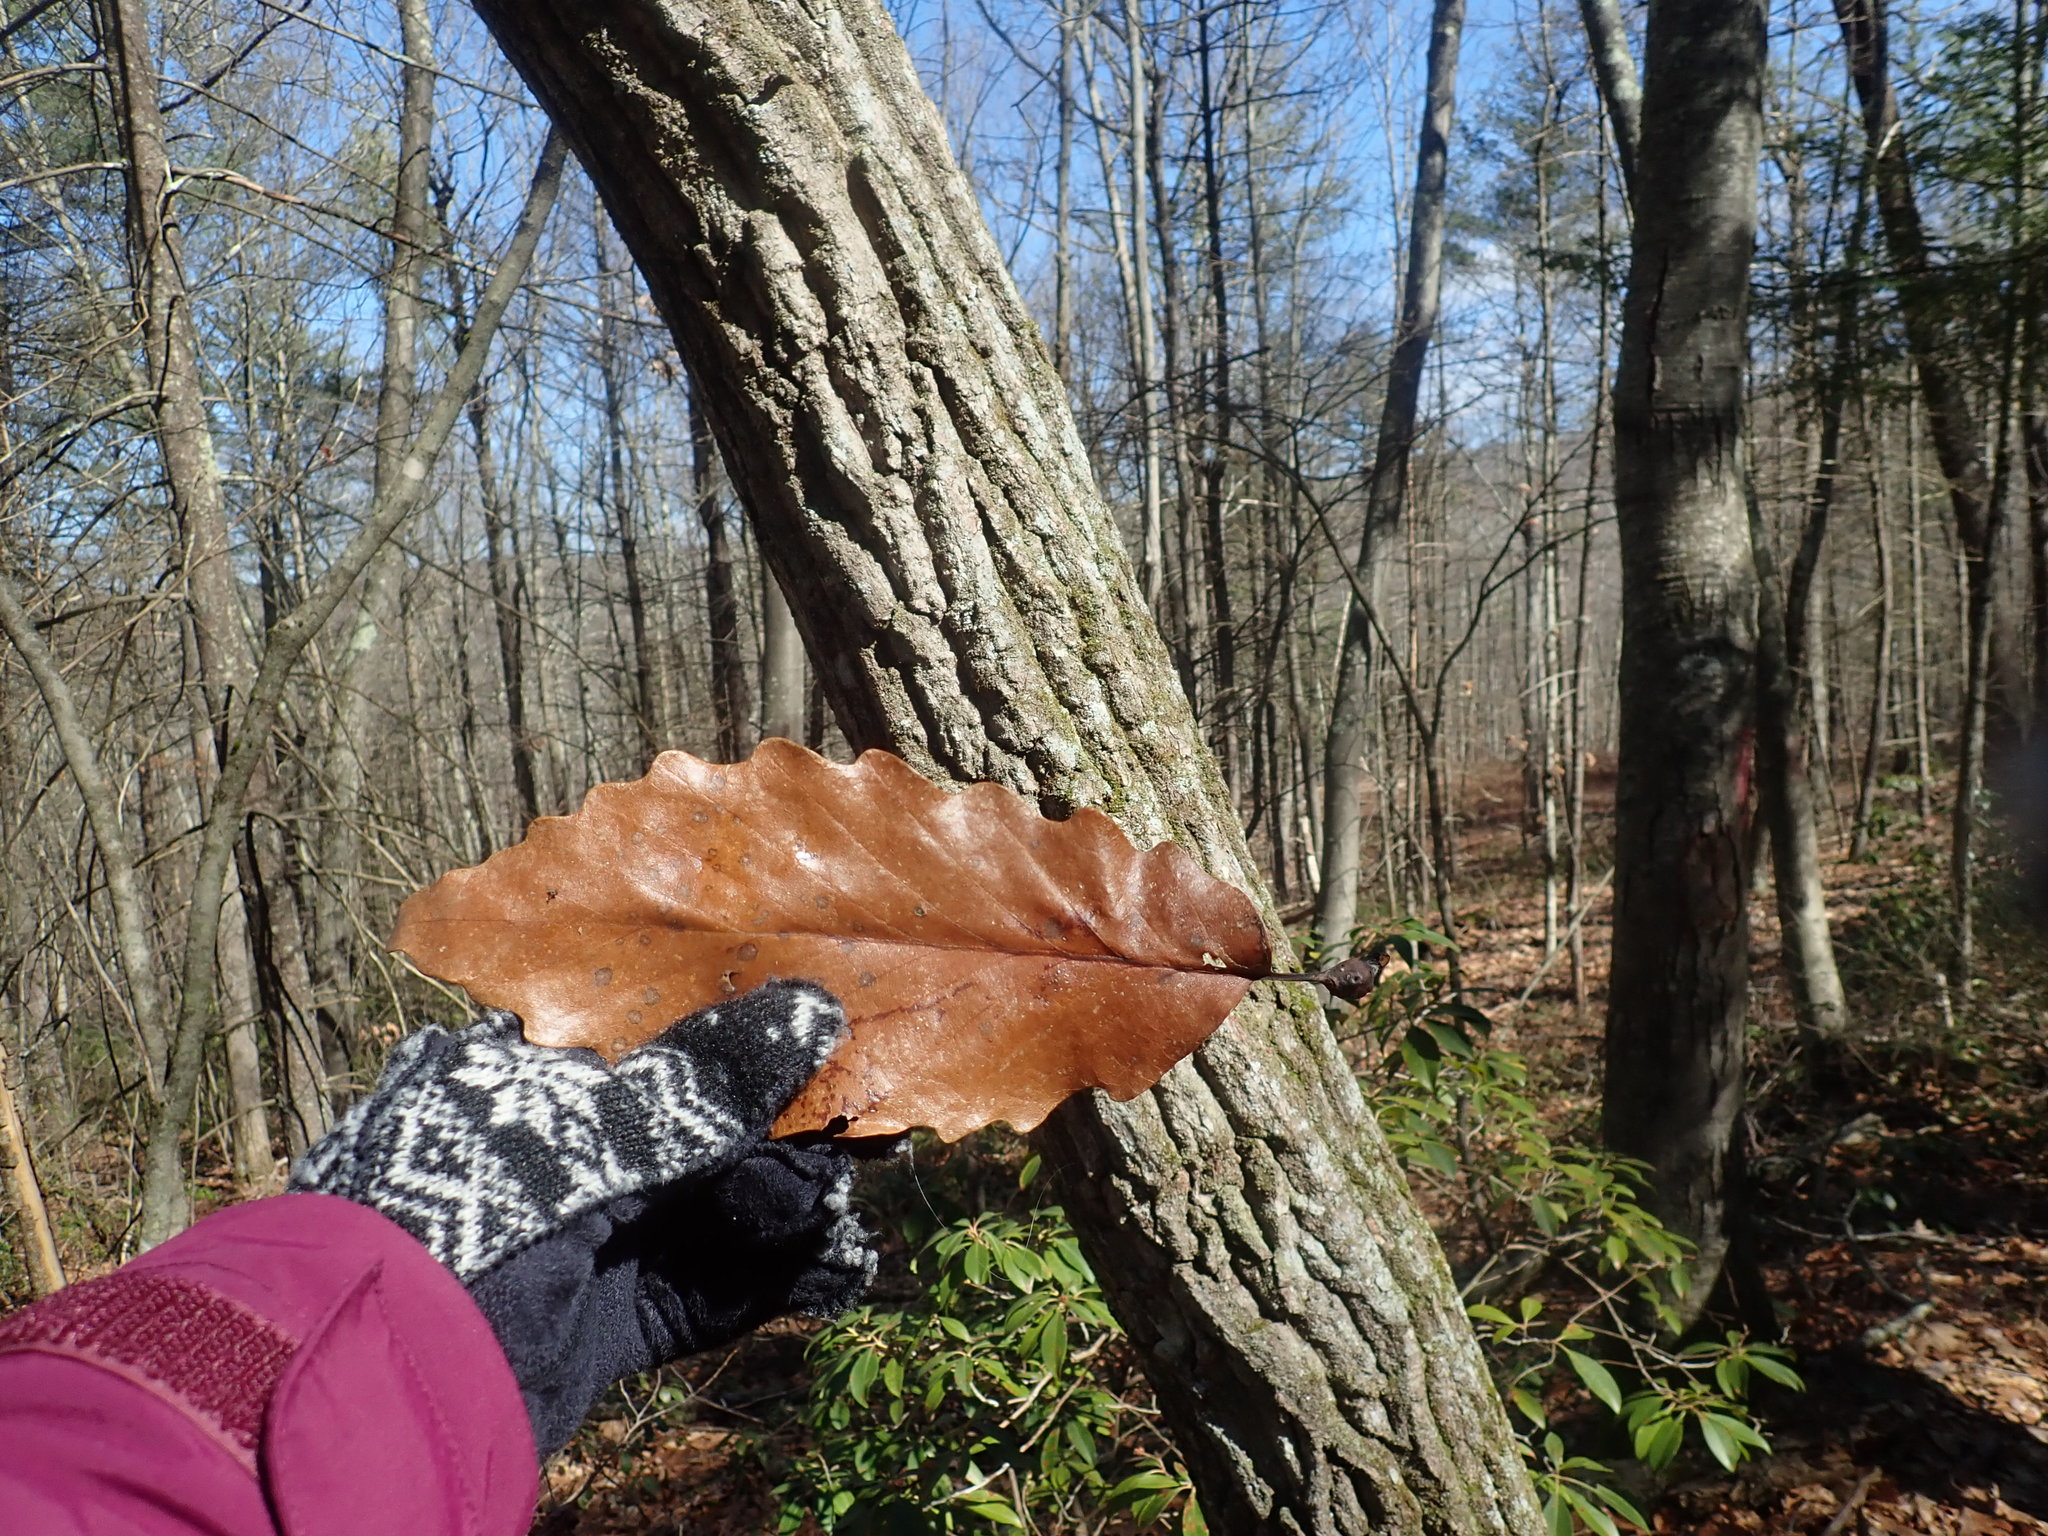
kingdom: Plantae
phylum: Tracheophyta
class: Magnoliopsida
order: Fagales
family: Fagaceae
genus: Quercus
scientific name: Quercus montana
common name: Chestnut oak
